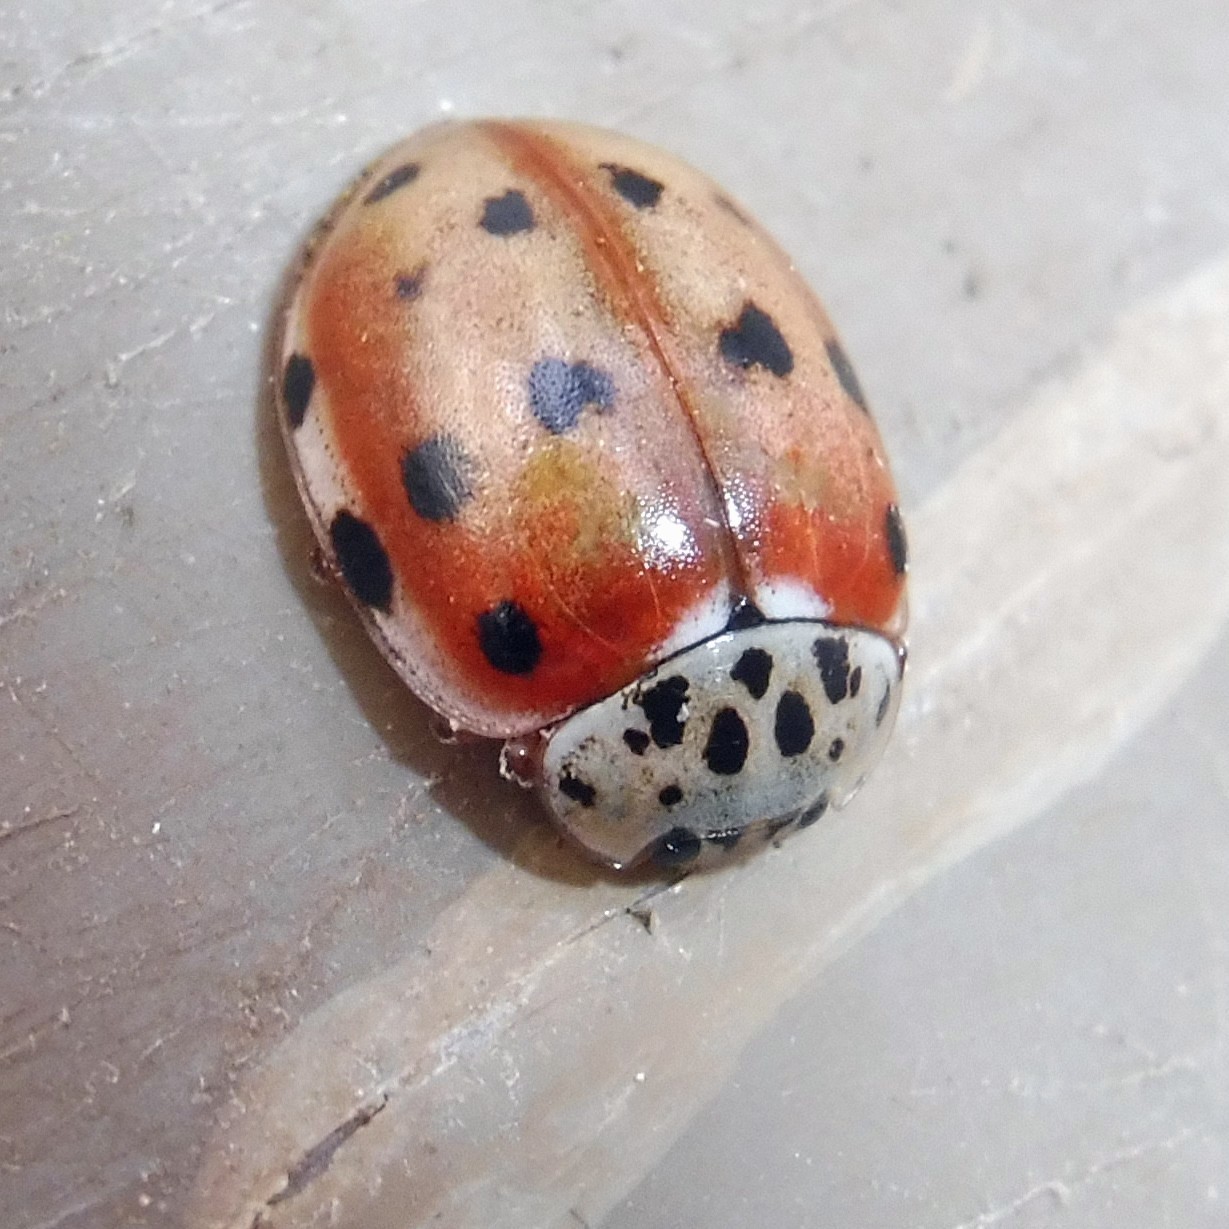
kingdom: Animalia
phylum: Arthropoda
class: Insecta
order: Coleoptera
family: Coccinellidae
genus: Harmonia
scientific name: Harmonia quadripunctata
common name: Cream-streaked ladybird
